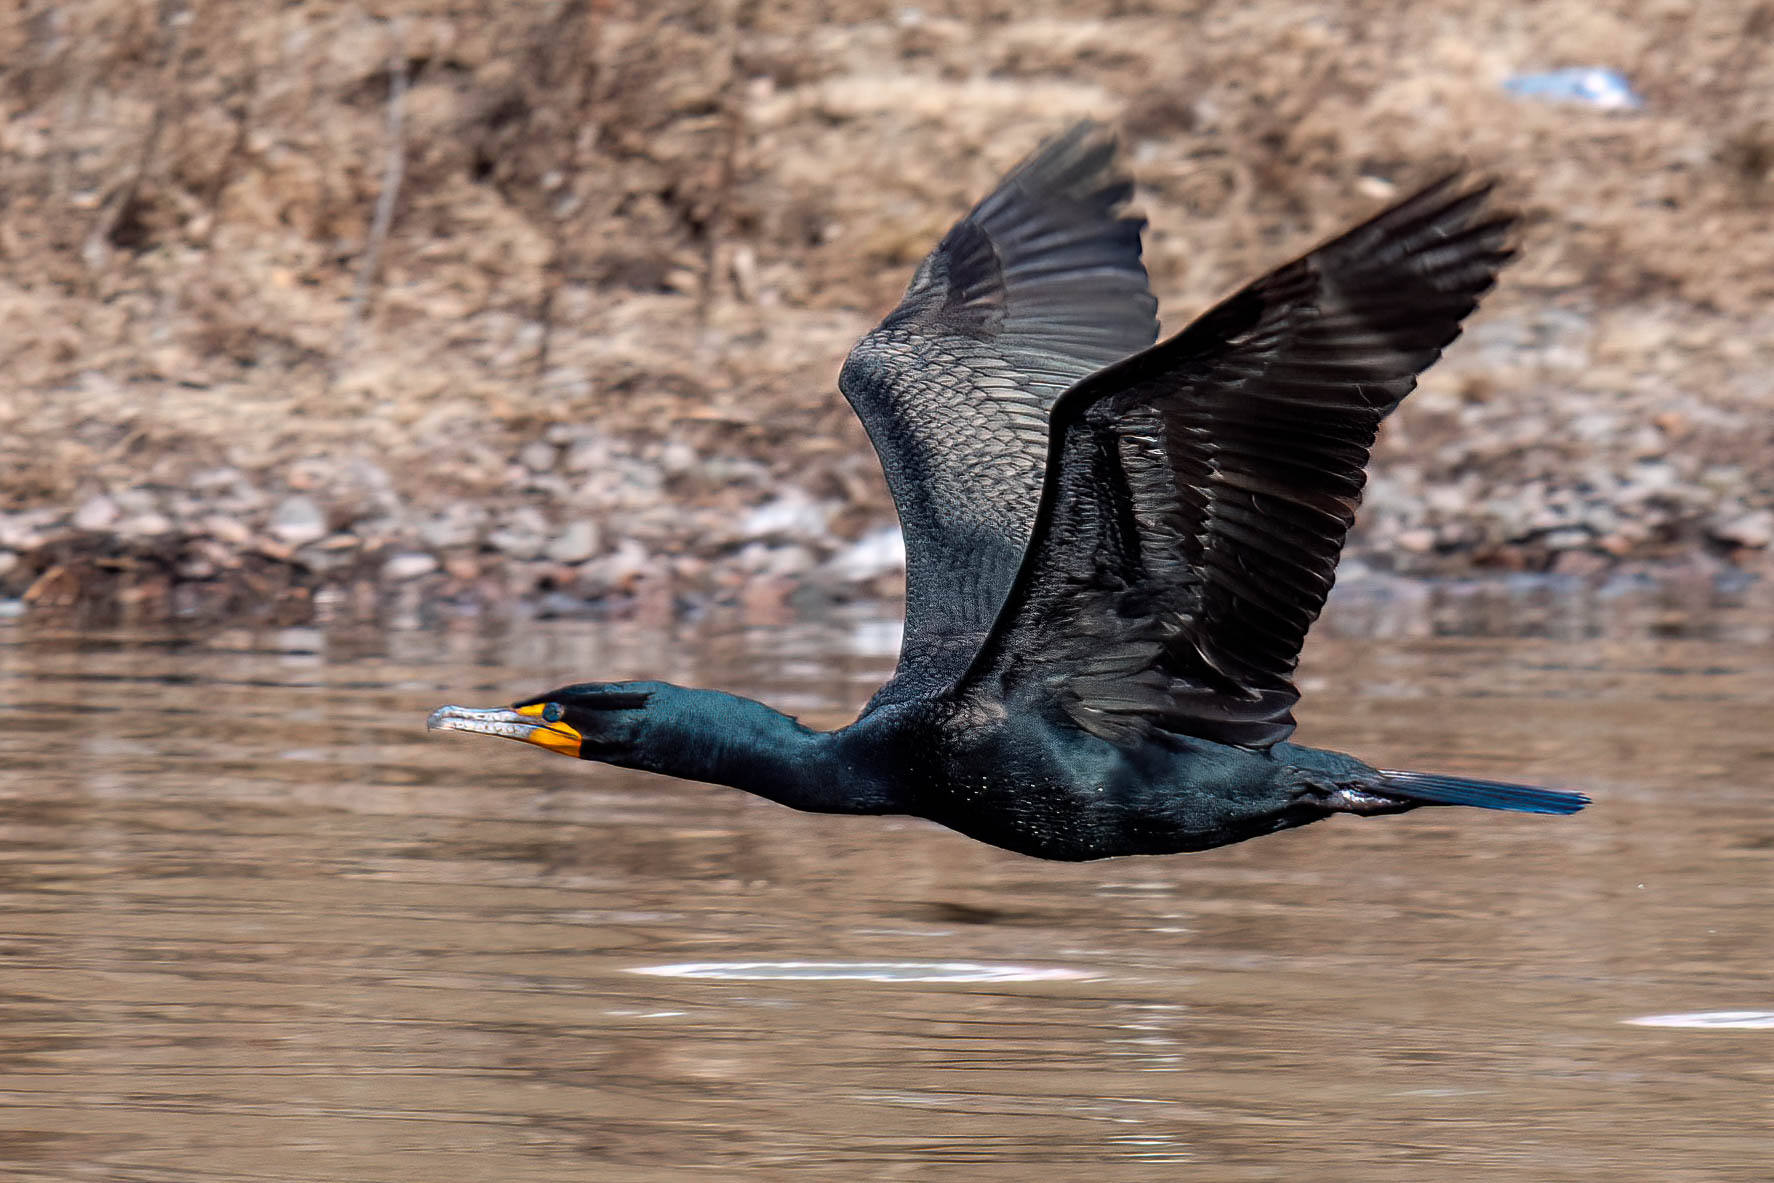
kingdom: Animalia
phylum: Chordata
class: Aves
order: Suliformes
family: Phalacrocoracidae
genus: Phalacrocorax
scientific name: Phalacrocorax auritus
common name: Double-crested cormorant
